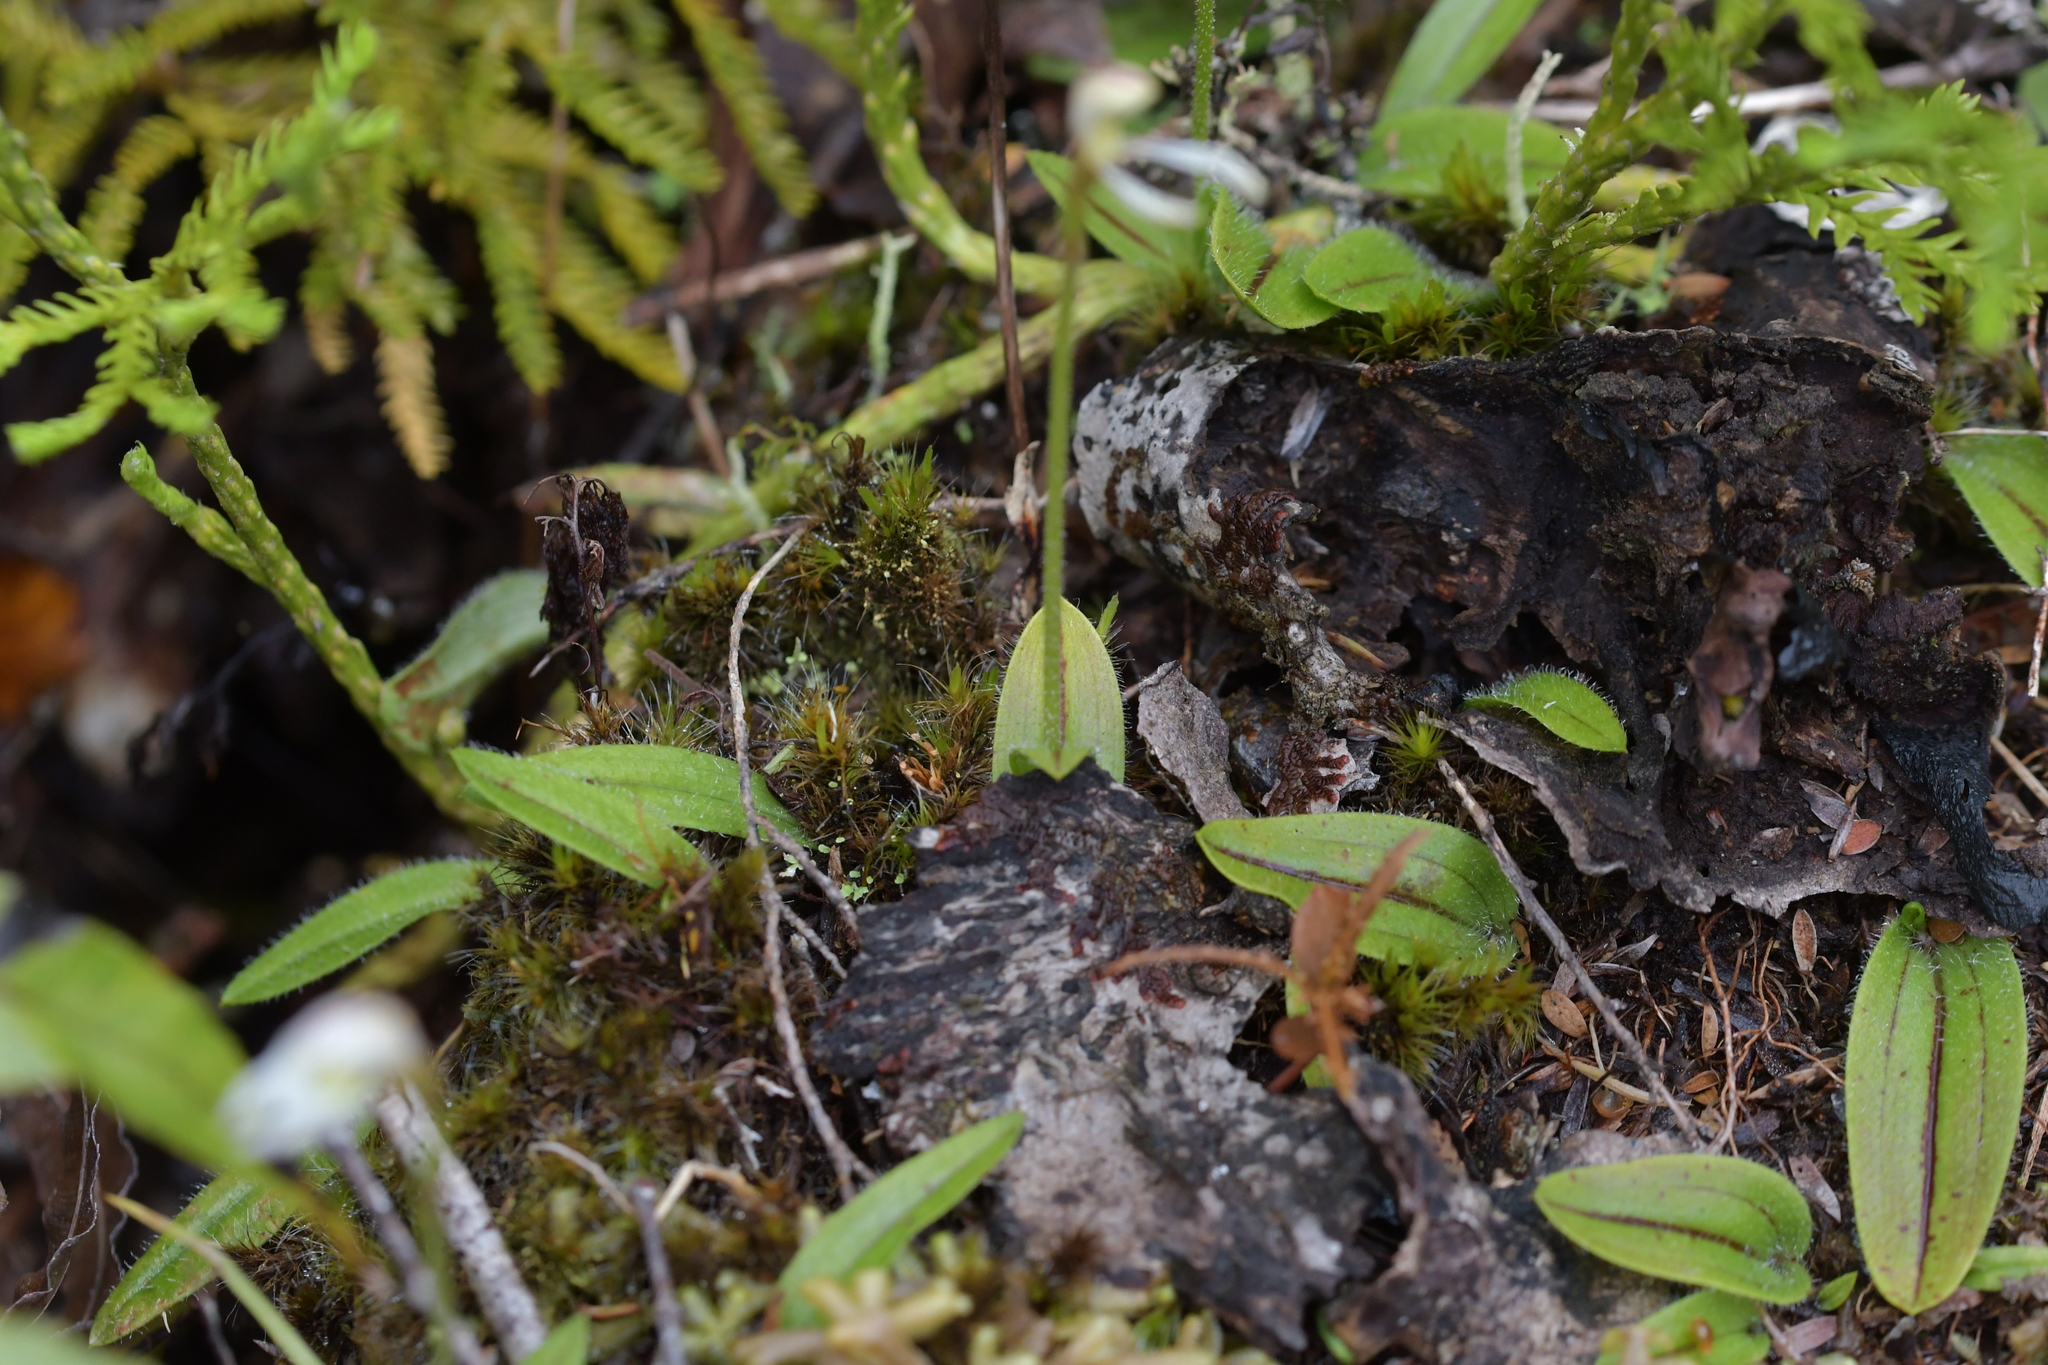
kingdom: Plantae
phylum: Tracheophyta
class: Liliopsida
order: Asparagales
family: Orchidaceae
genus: Aporostylis
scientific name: Aporostylis bifolia
